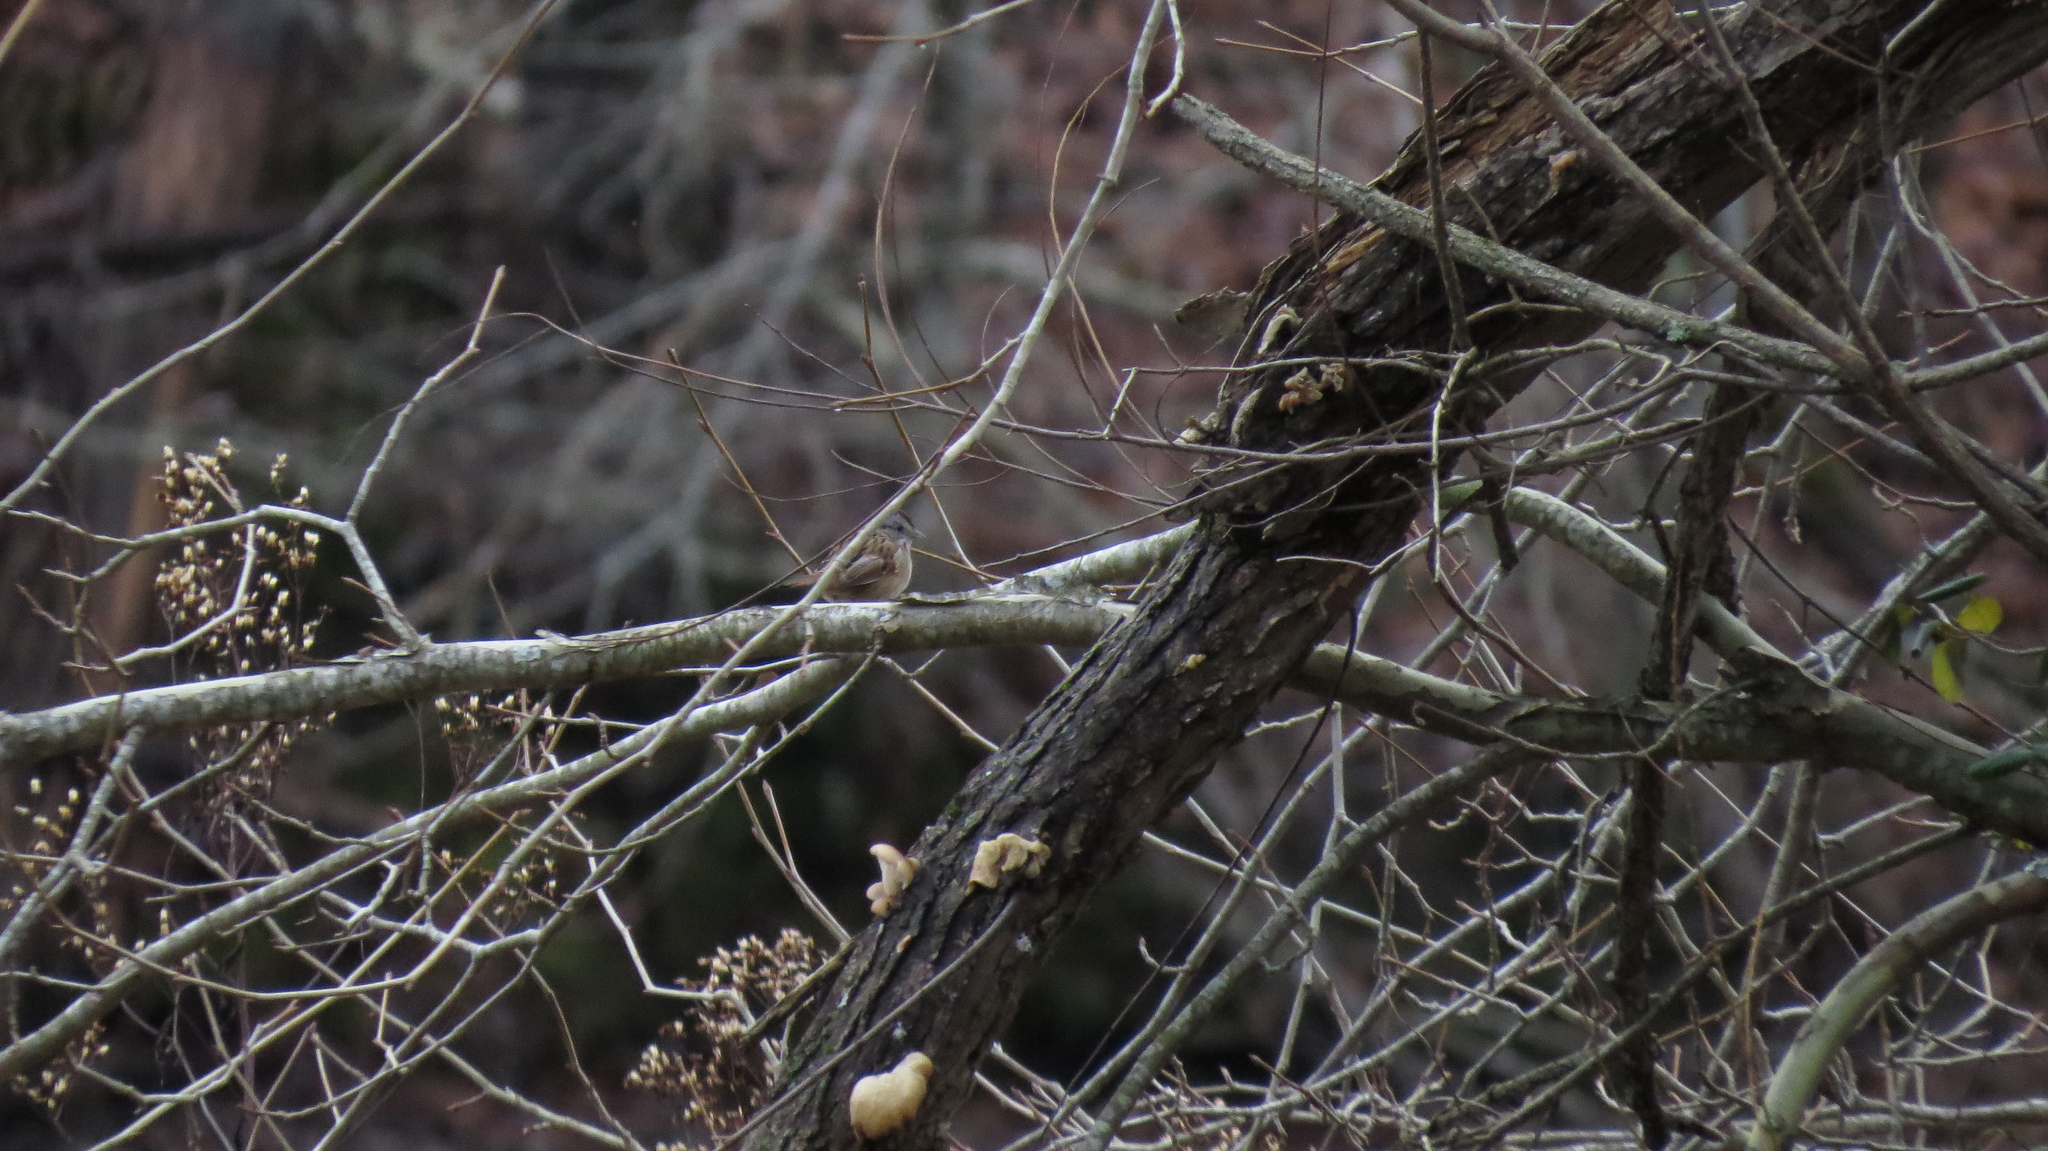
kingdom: Animalia
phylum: Chordata
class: Aves
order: Passeriformes
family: Passerellidae
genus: Melospiza
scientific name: Melospiza georgiana
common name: Swamp sparrow
